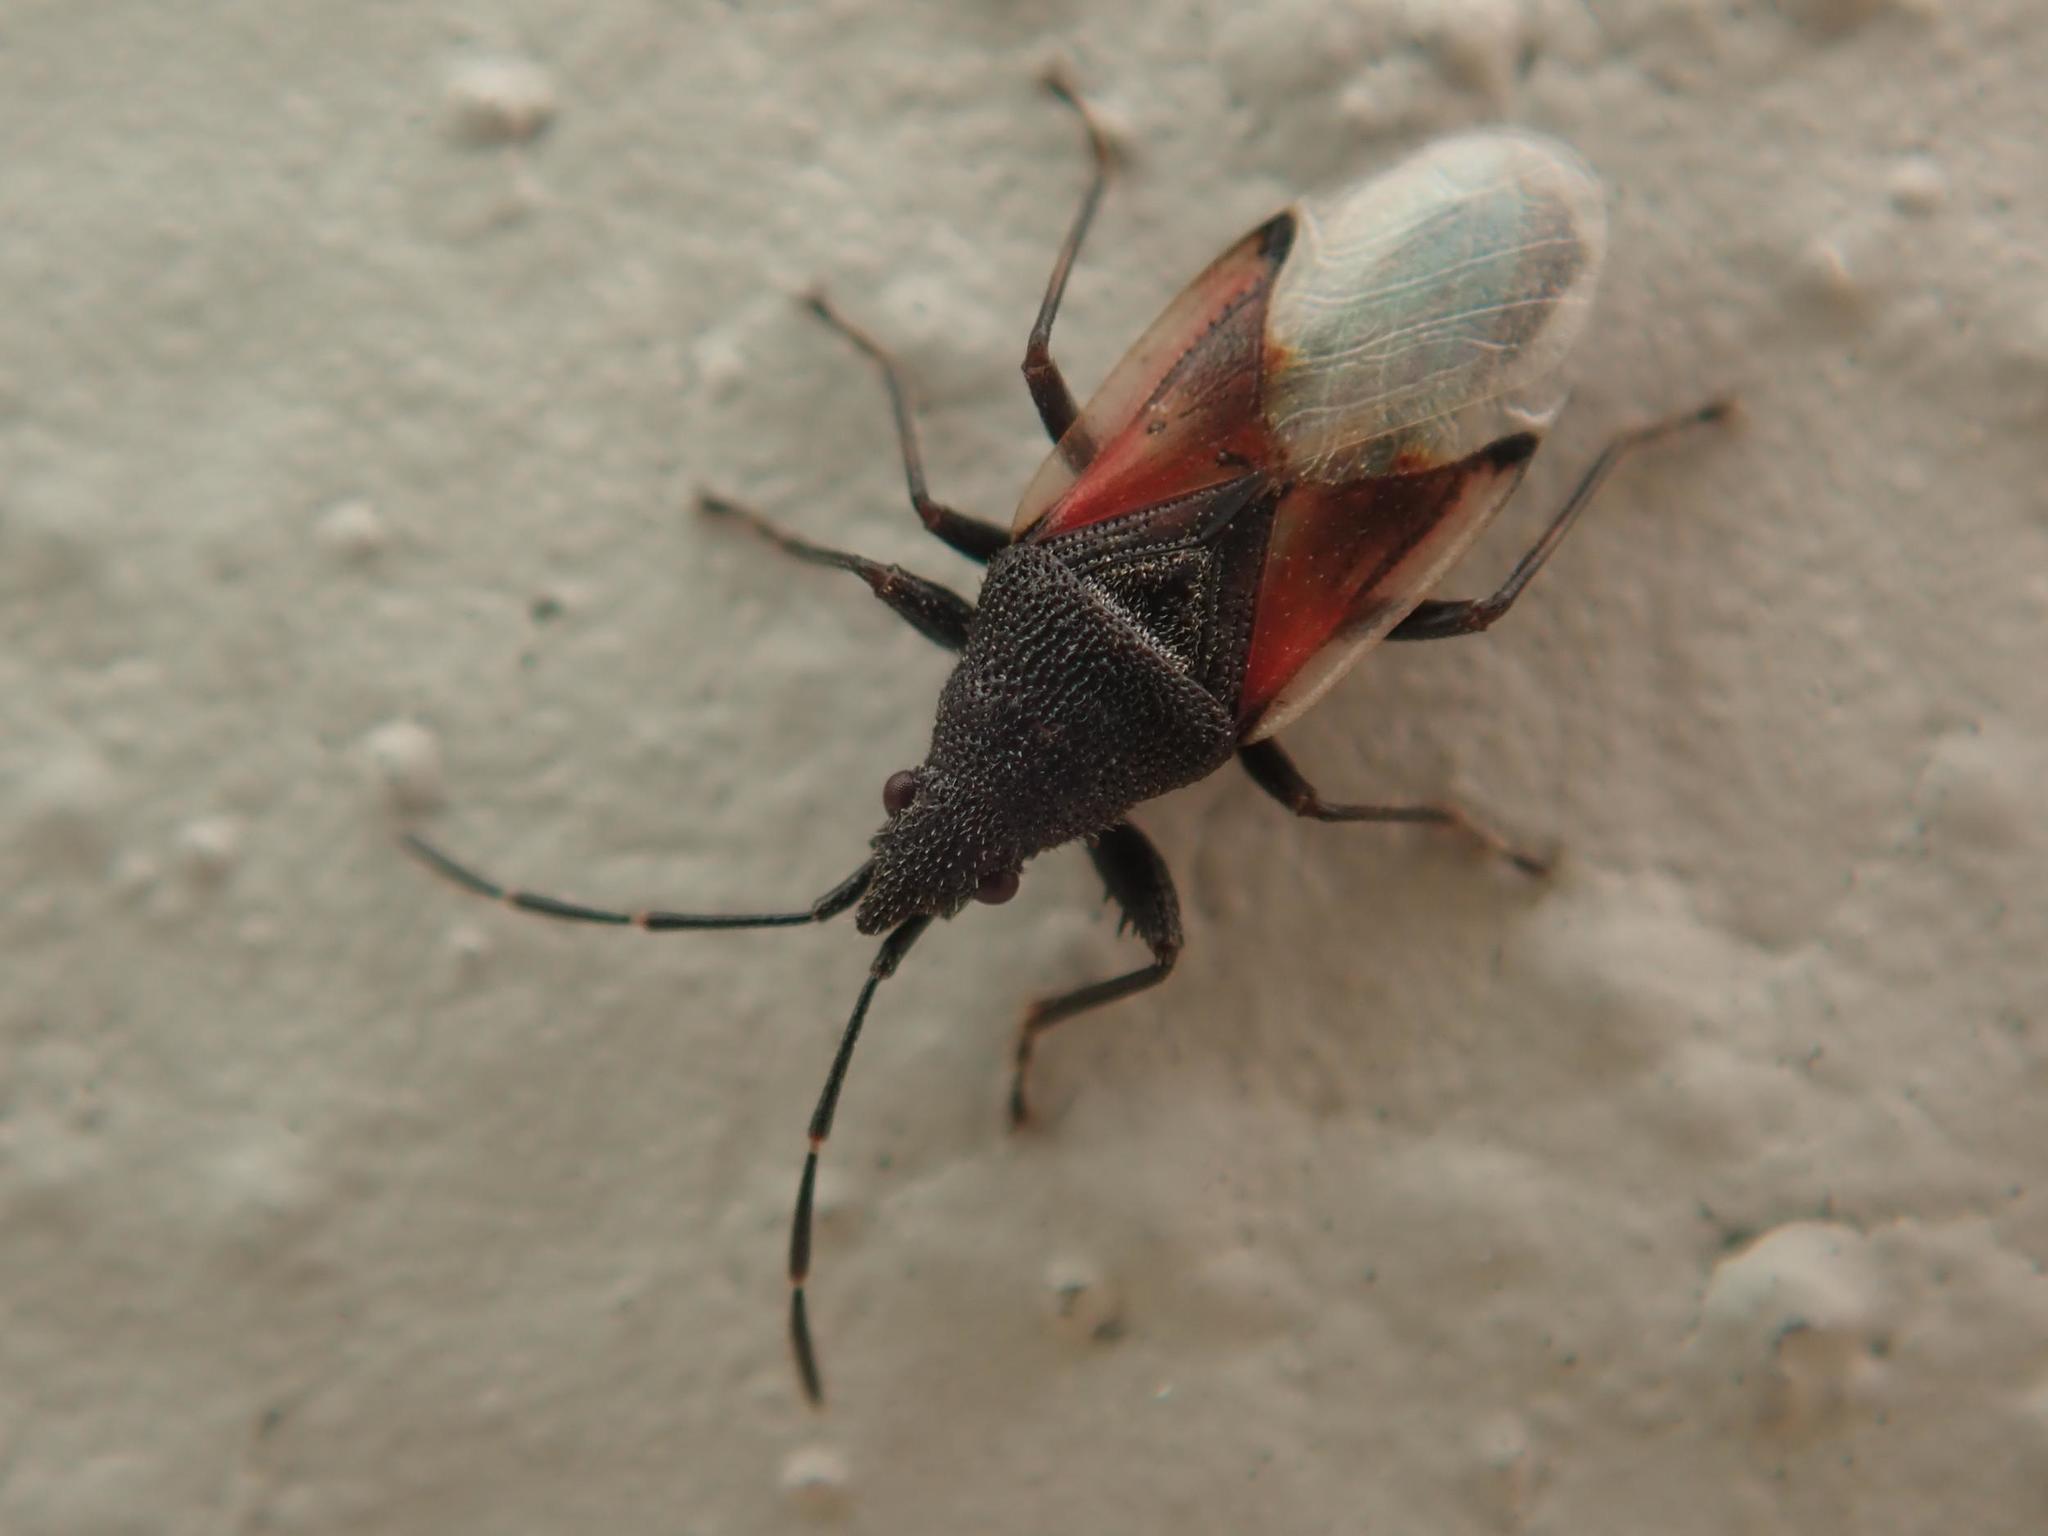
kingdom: Animalia
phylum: Arthropoda
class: Insecta
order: Hemiptera
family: Oxycarenidae
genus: Oxycarenus
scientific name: Oxycarenus lavaterae
